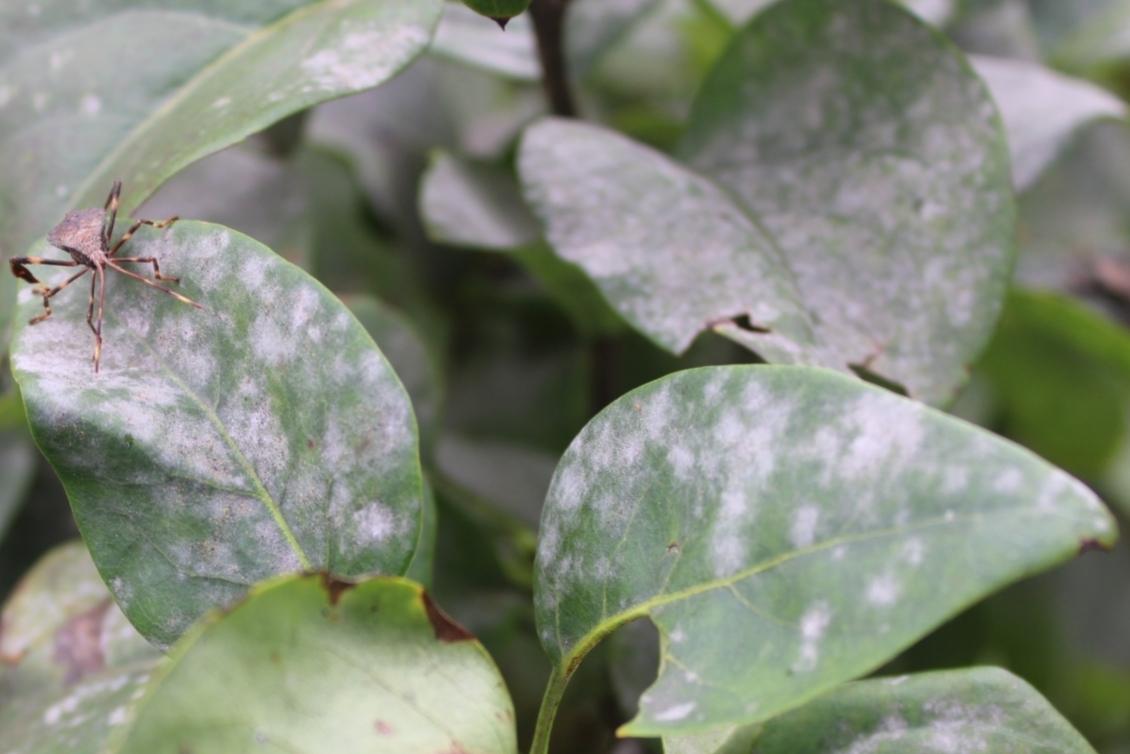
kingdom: Fungi
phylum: Ascomycota
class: Leotiomycetes
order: Helotiales
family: Erysiphaceae
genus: Erysiphe
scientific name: Erysiphe syringae
